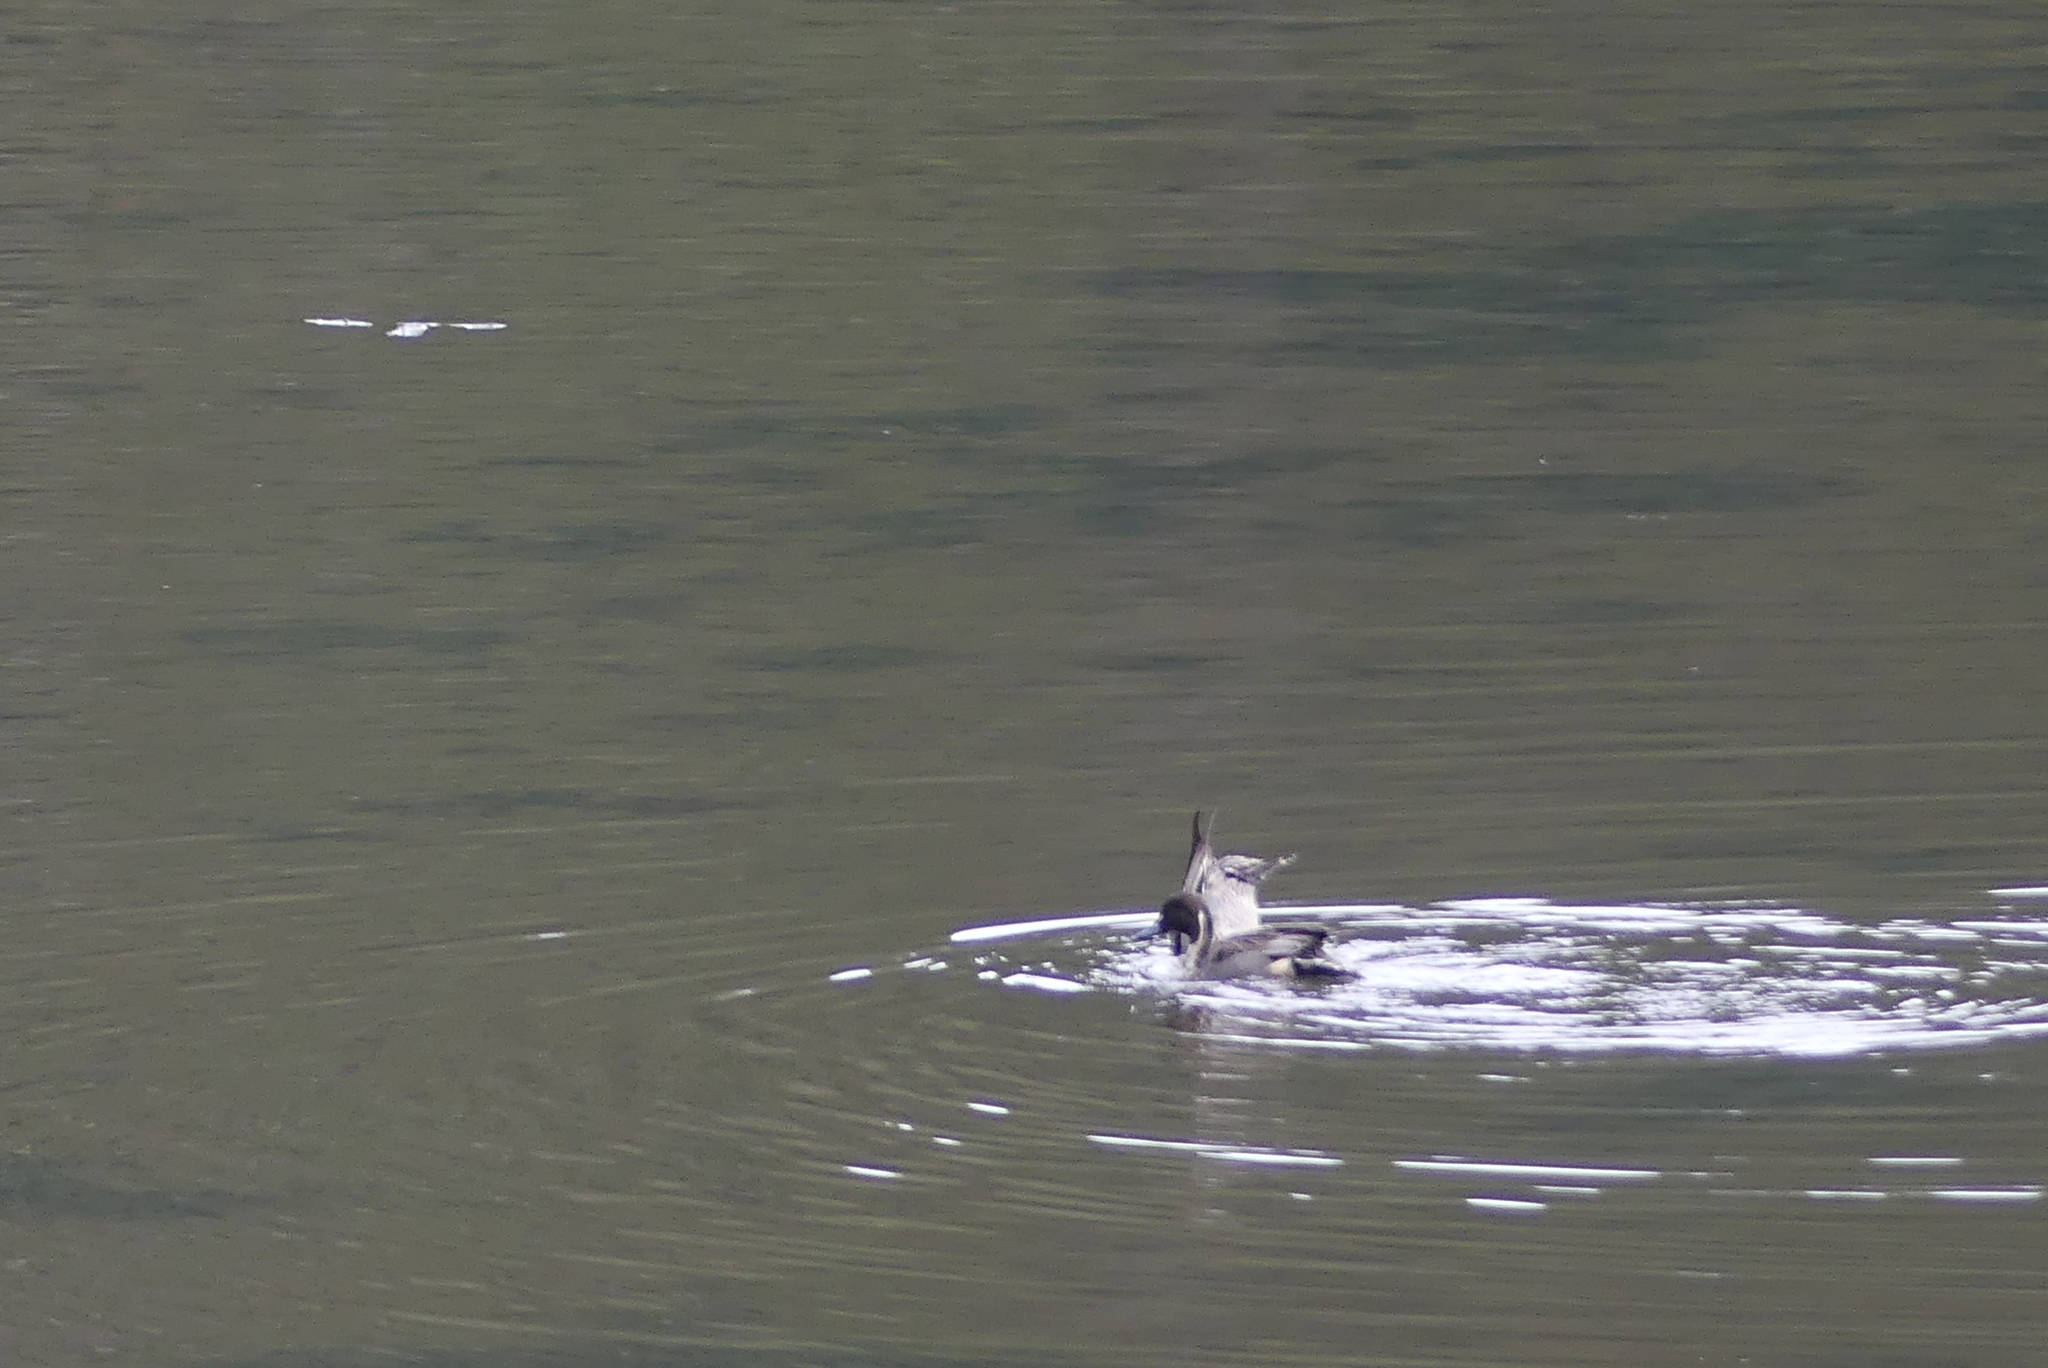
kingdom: Animalia
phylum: Chordata
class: Aves
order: Anseriformes
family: Anatidae
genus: Anas
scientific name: Anas acuta
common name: Northern pintail
